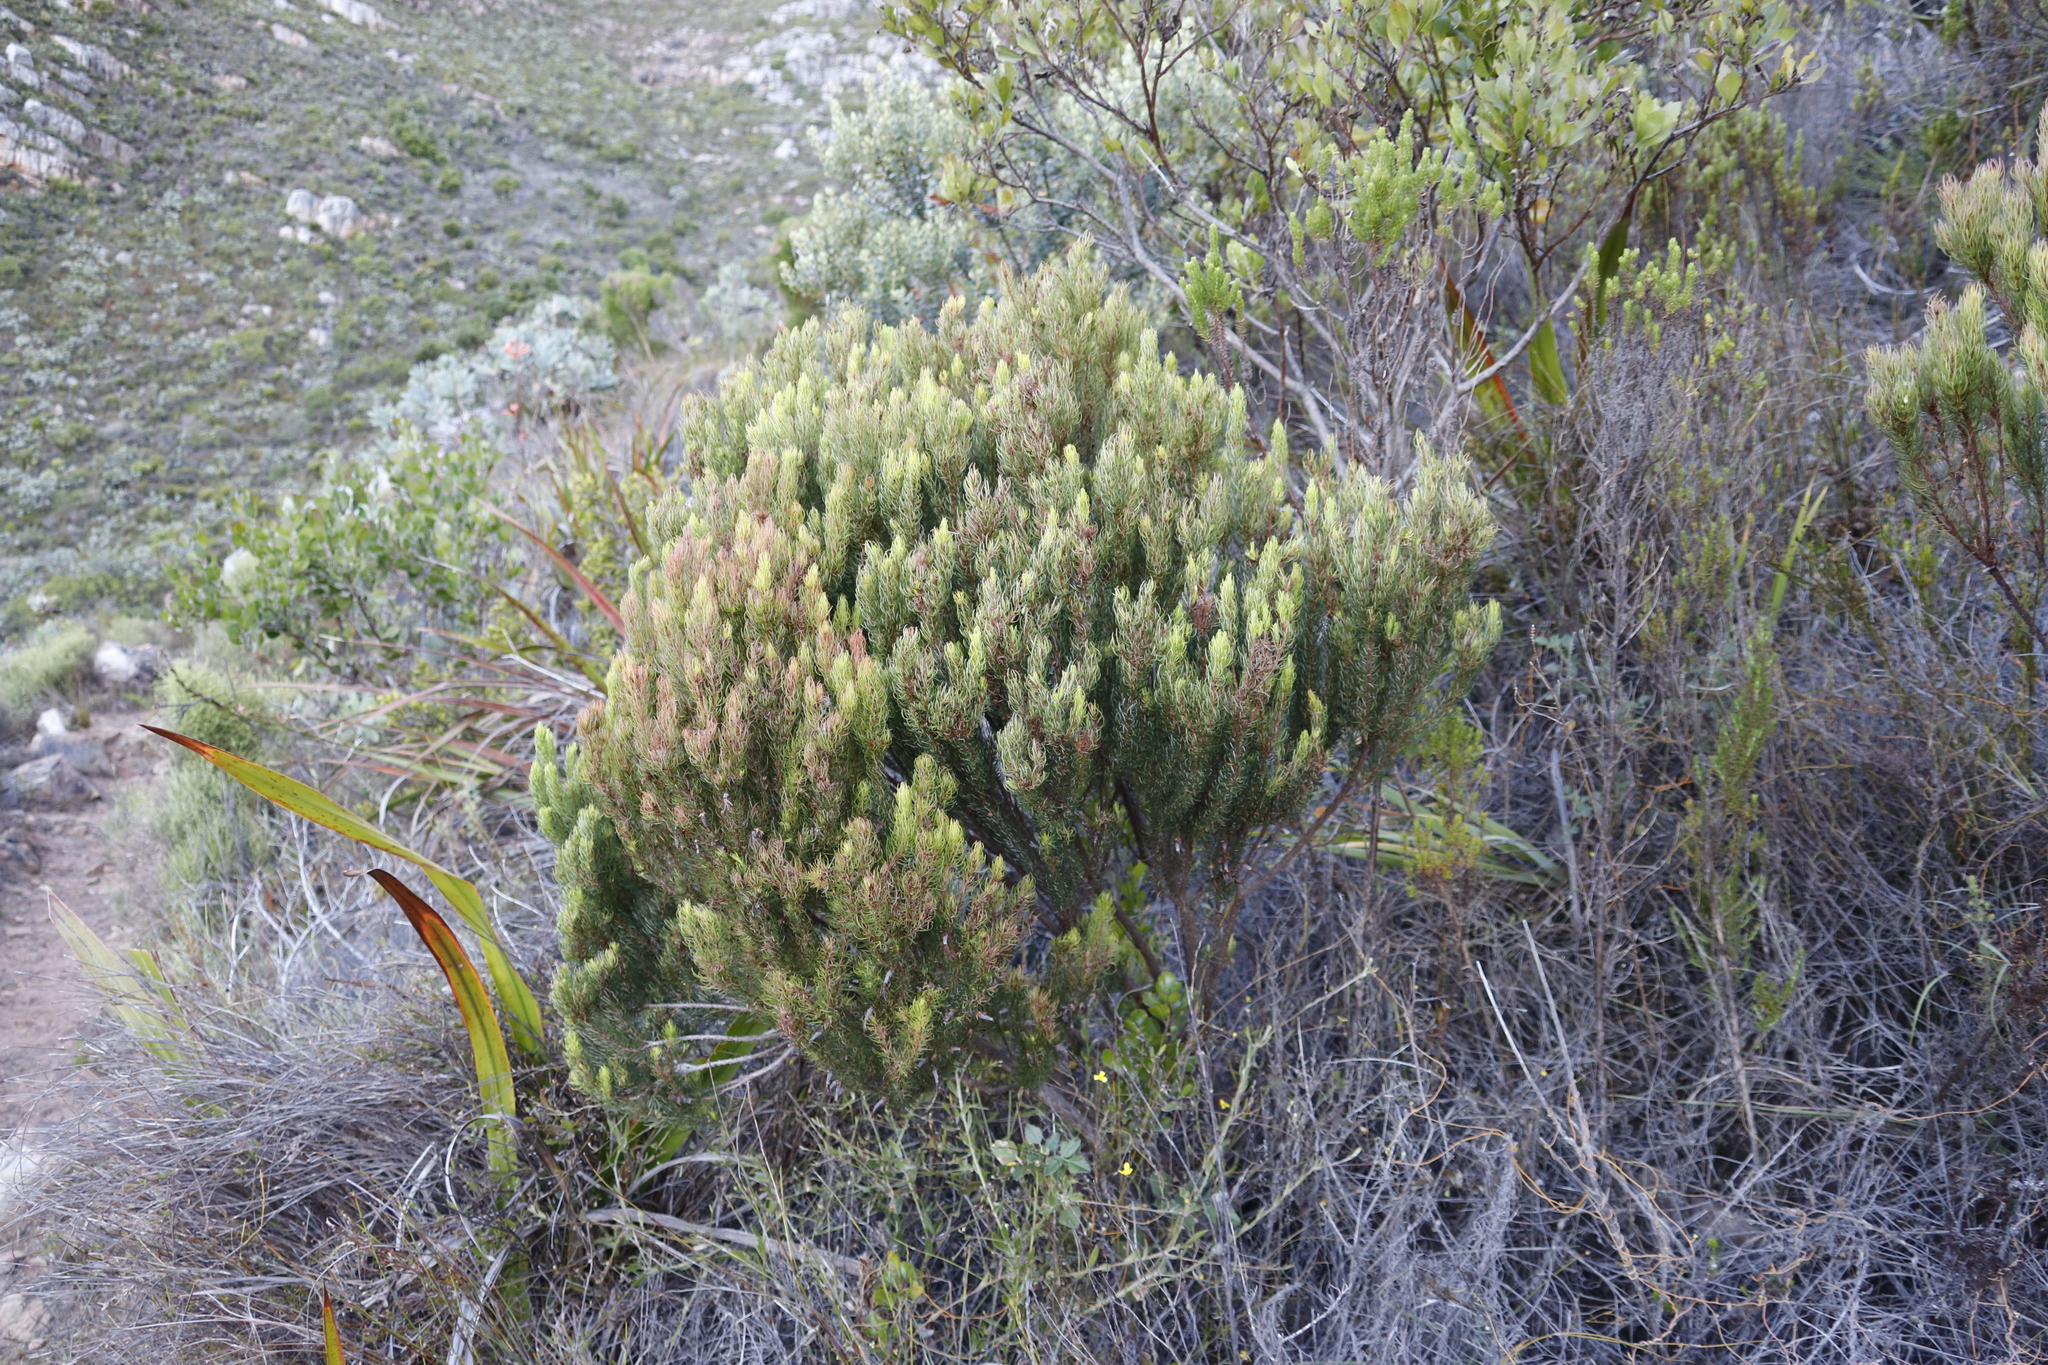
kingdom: Plantae
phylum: Tracheophyta
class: Magnoliopsida
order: Ericales
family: Ericaceae
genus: Erica
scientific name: Erica plukenetii
